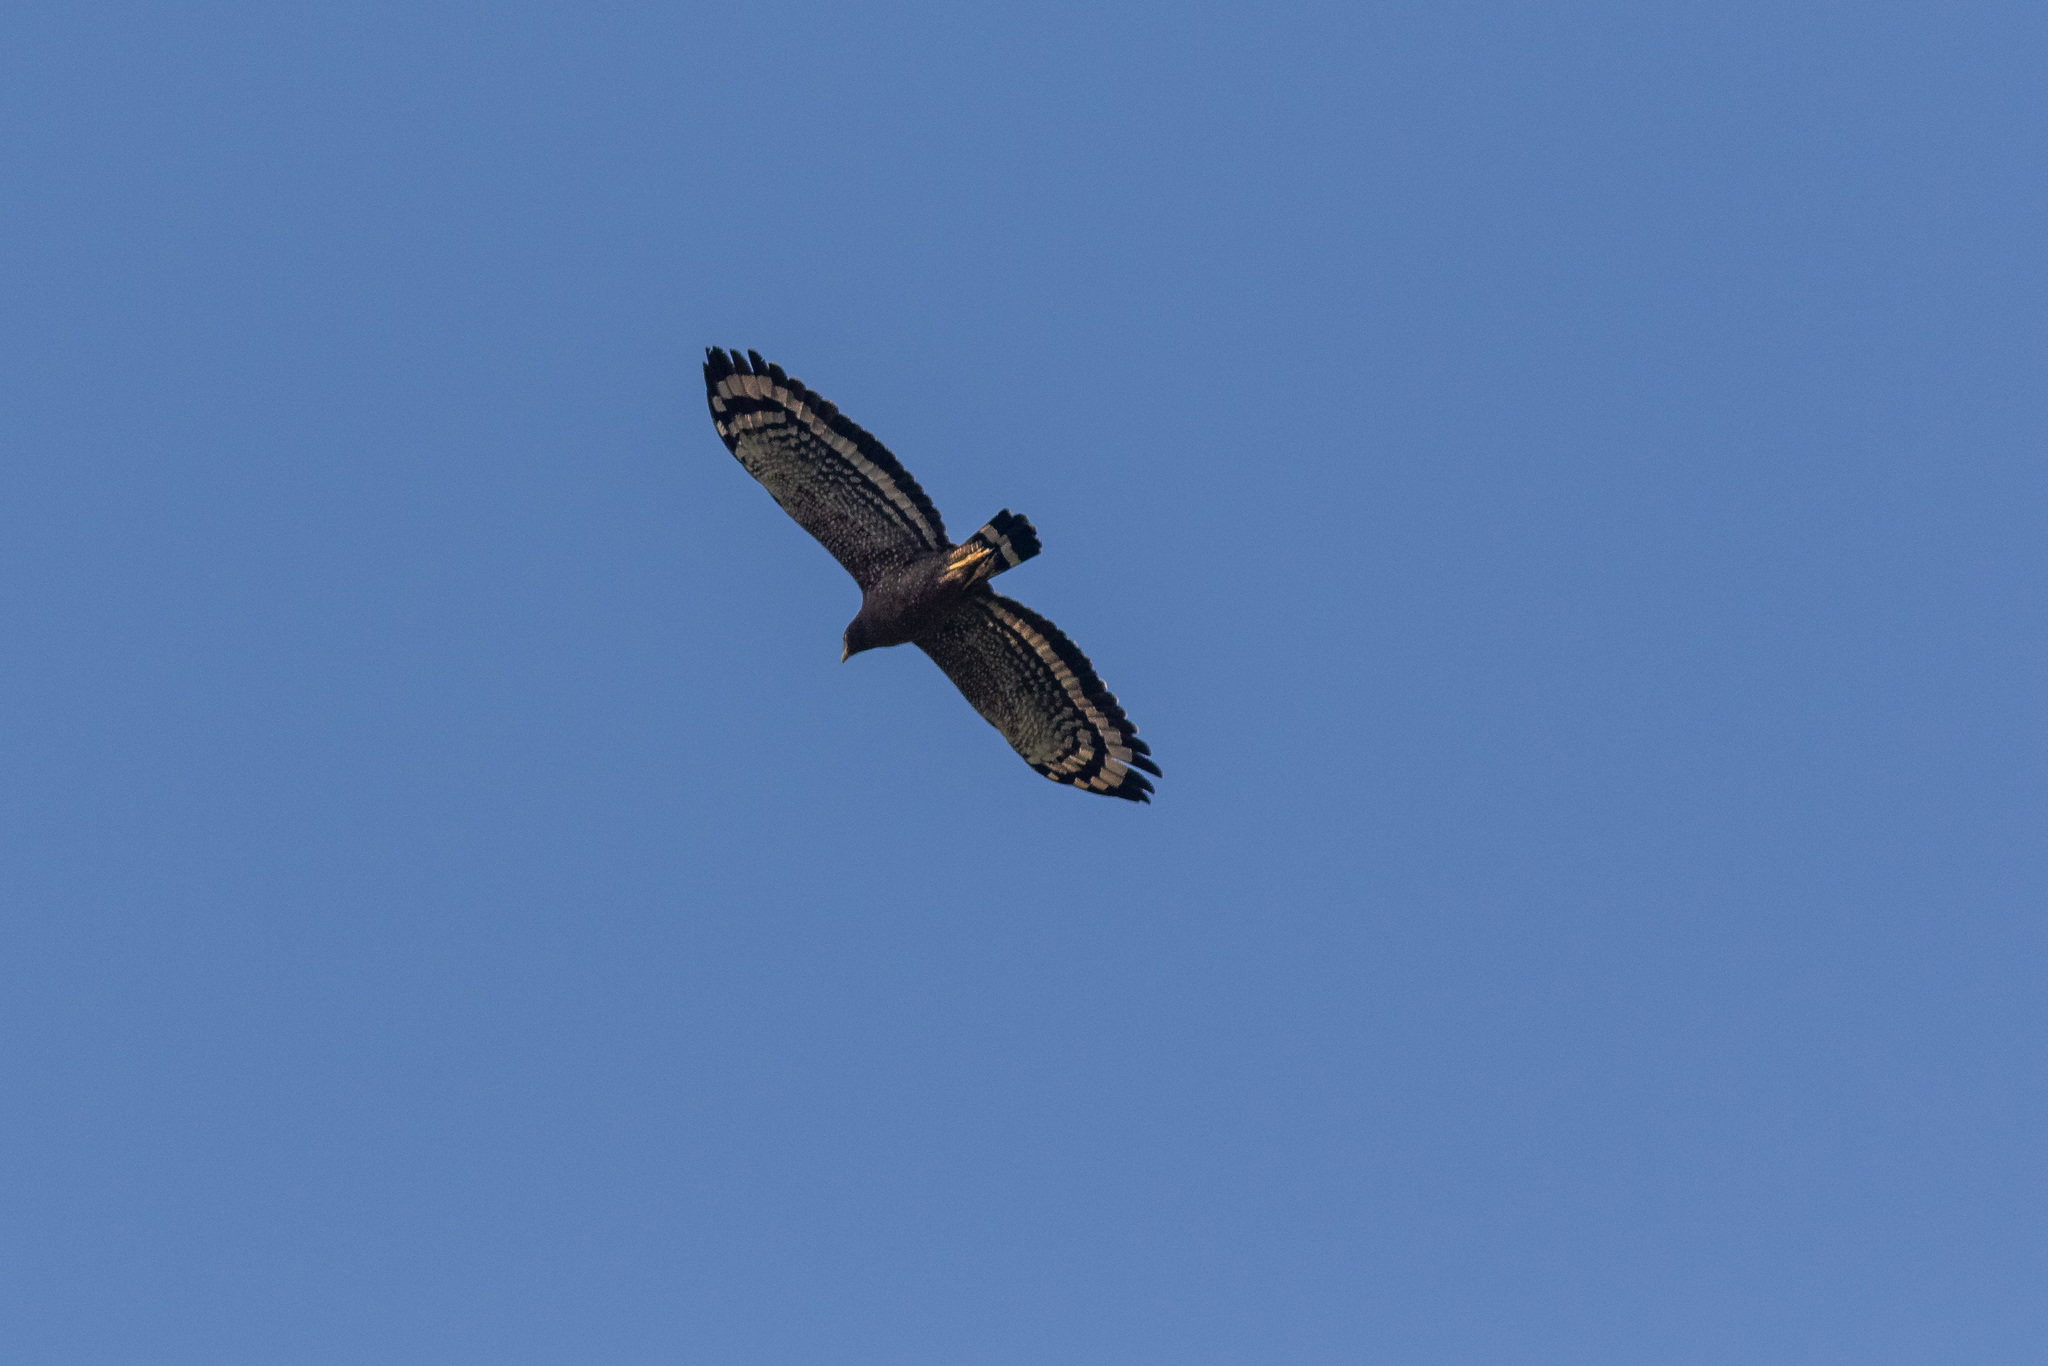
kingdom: Animalia
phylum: Chordata
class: Aves
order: Accipitriformes
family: Accipitridae
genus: Spilornis
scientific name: Spilornis cheela
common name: Crested serpent eagle
